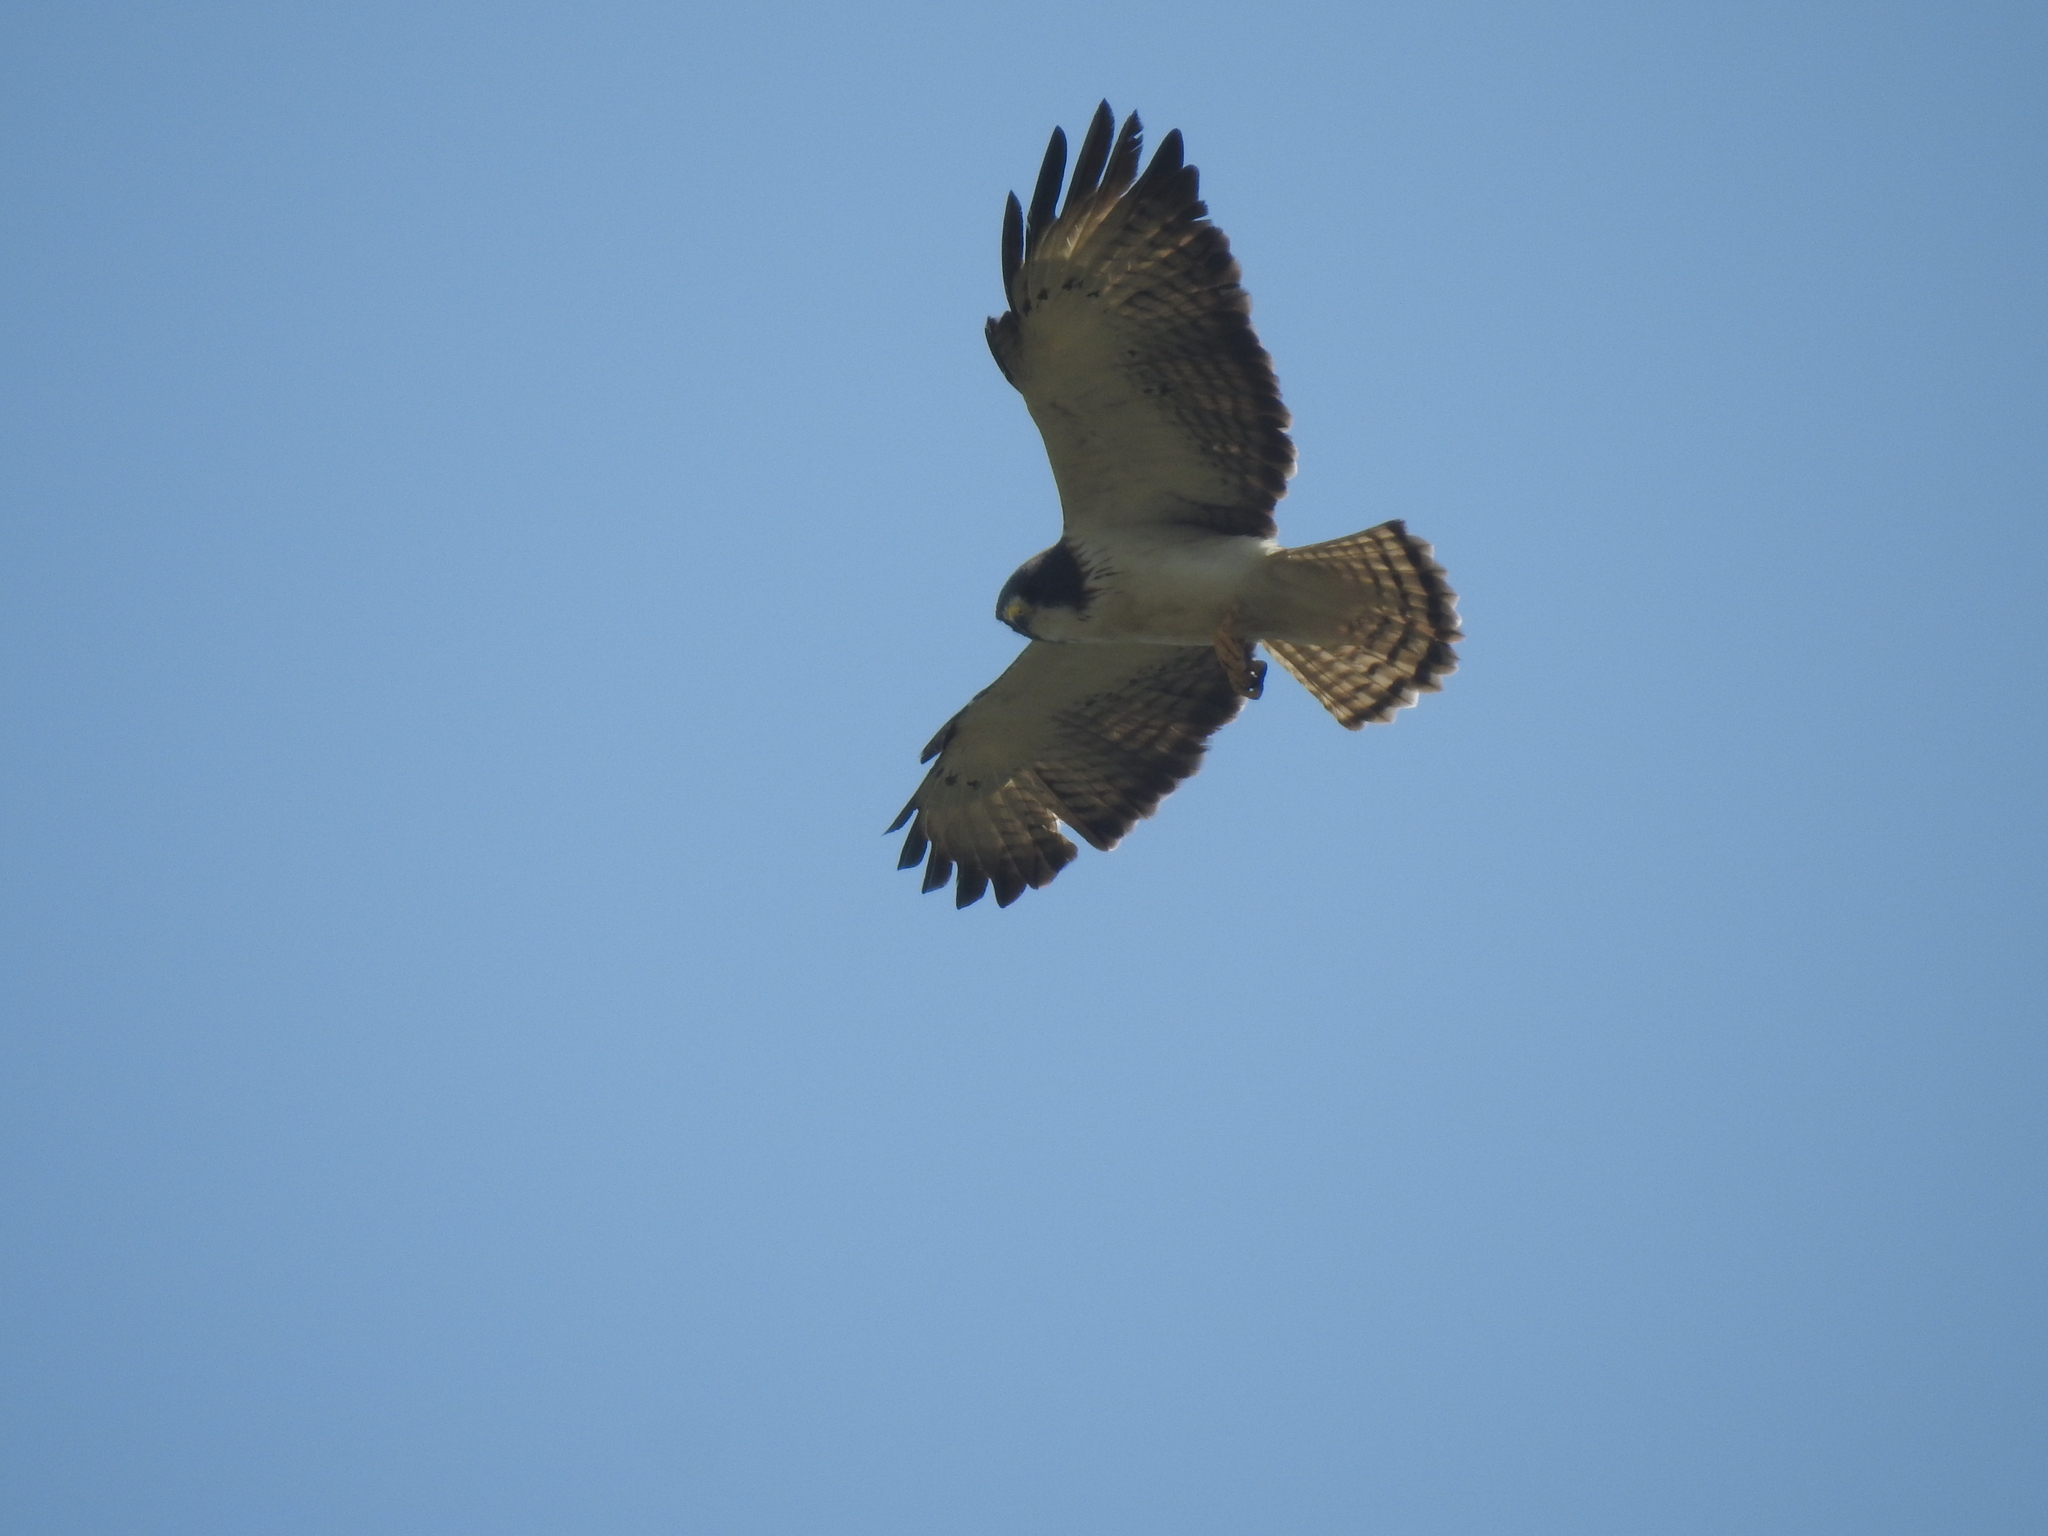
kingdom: Animalia
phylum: Chordata
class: Aves
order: Accipitriformes
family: Accipitridae
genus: Buteo
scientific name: Buteo brachyurus
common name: Short-tailed hawk
